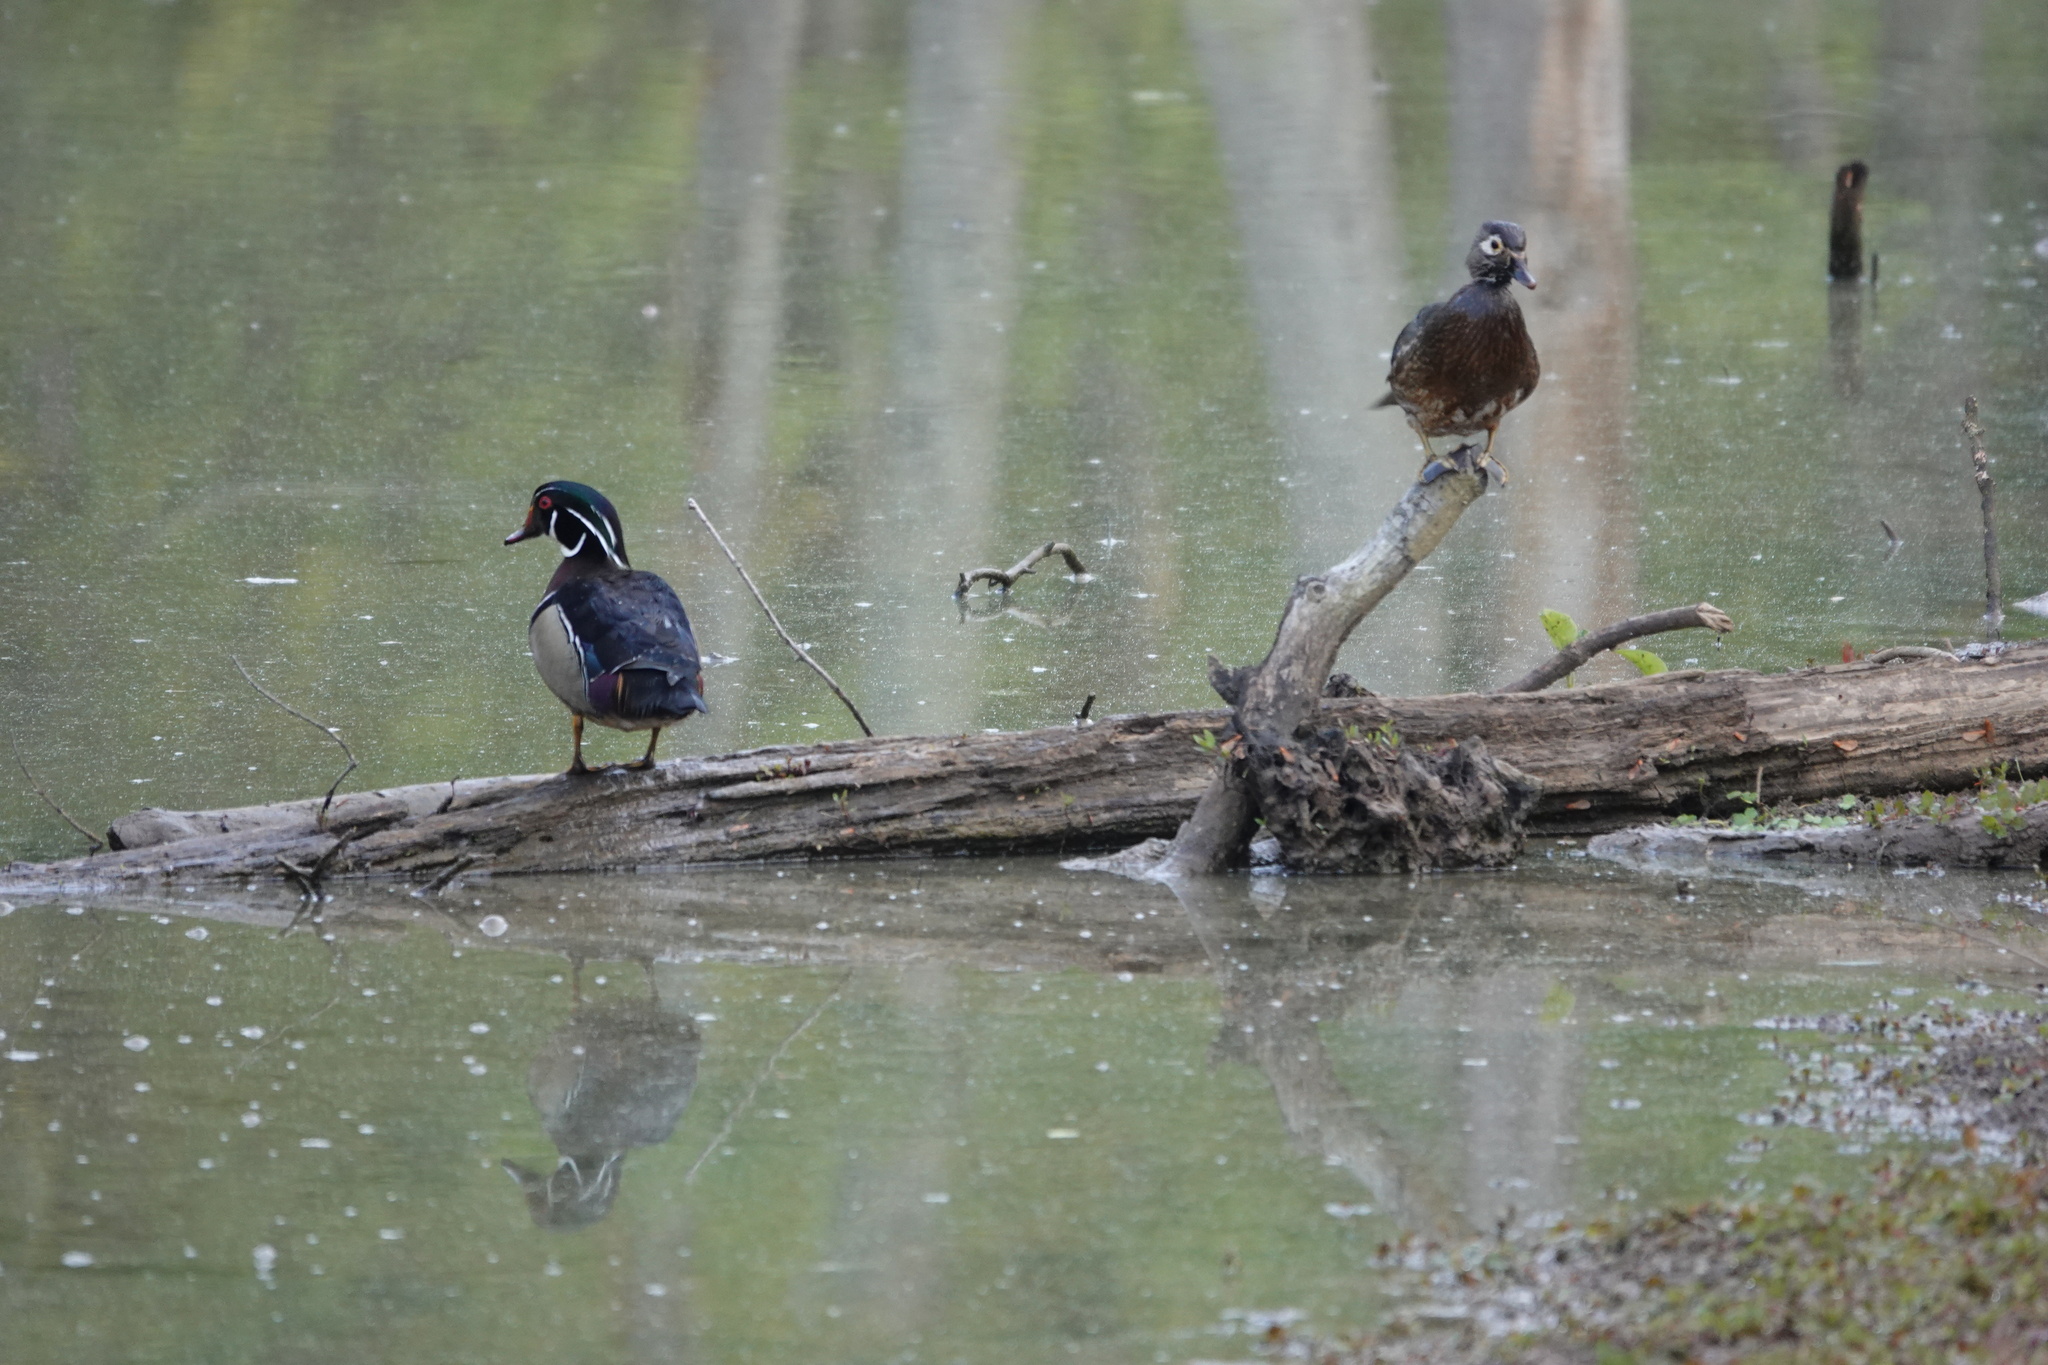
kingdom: Animalia
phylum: Chordata
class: Aves
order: Anseriformes
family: Anatidae
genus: Aix
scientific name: Aix sponsa
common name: Wood duck
